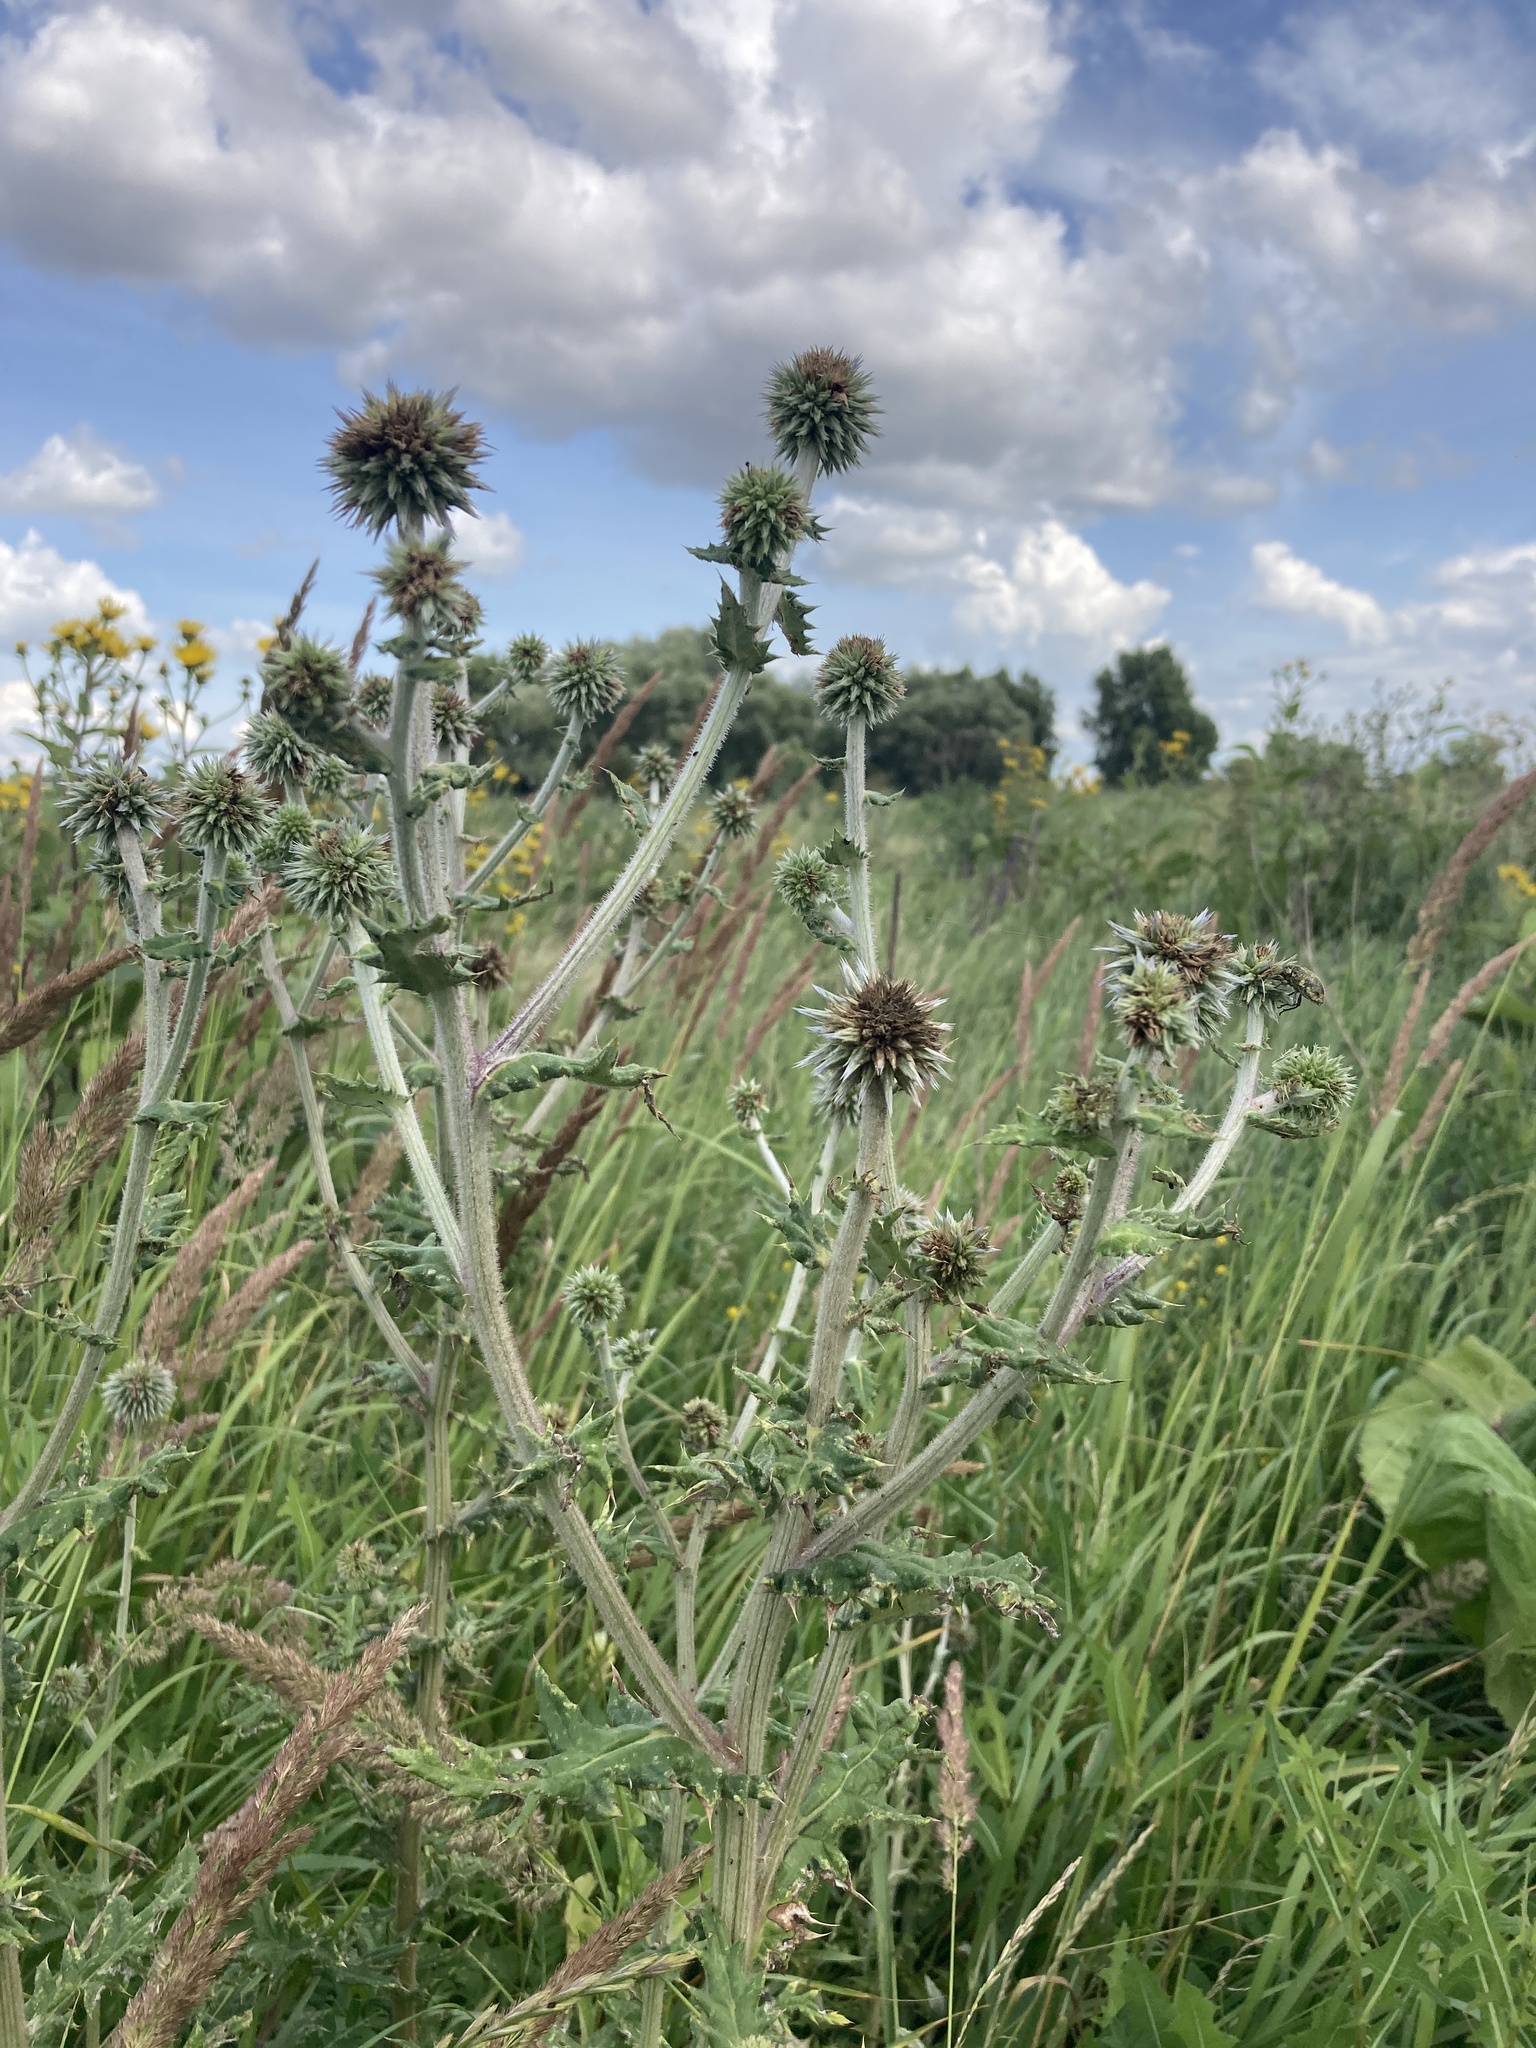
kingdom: Plantae
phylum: Tracheophyta
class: Magnoliopsida
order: Asterales
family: Asteraceae
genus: Echinops
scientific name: Echinops sphaerocephalus
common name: Glandular globe-thistle
